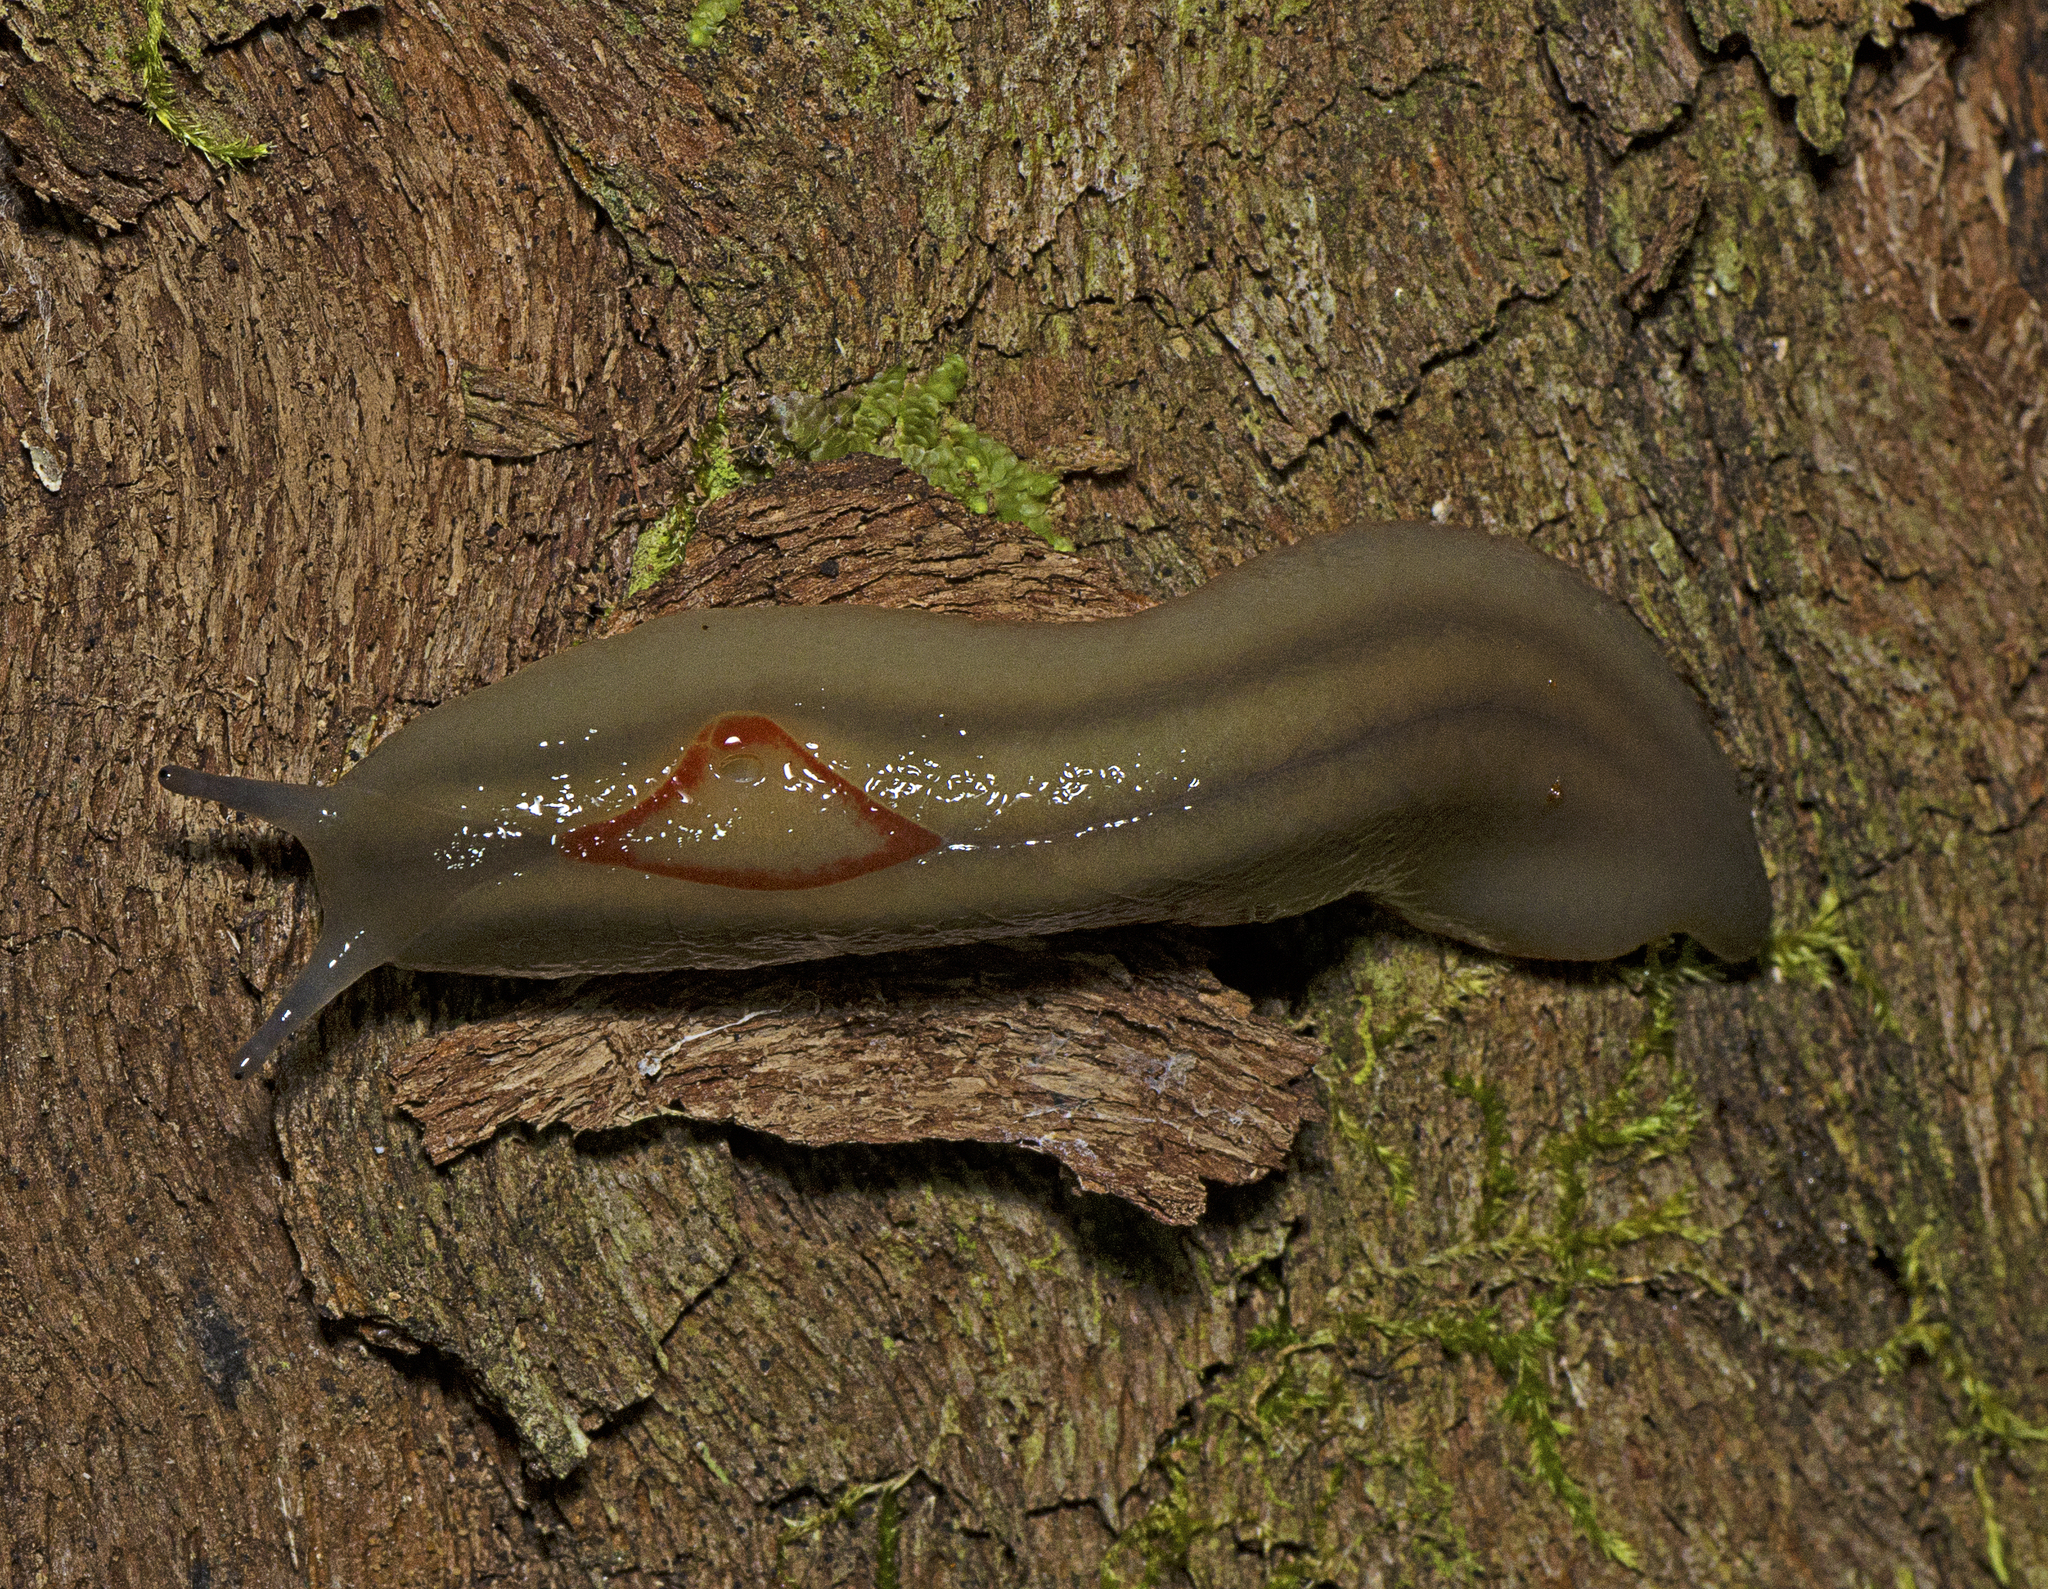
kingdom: Animalia
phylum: Mollusca
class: Gastropoda
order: Stylommatophora
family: Athoracophoridae
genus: Triboniophorus
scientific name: Triboniophorus graeffei
